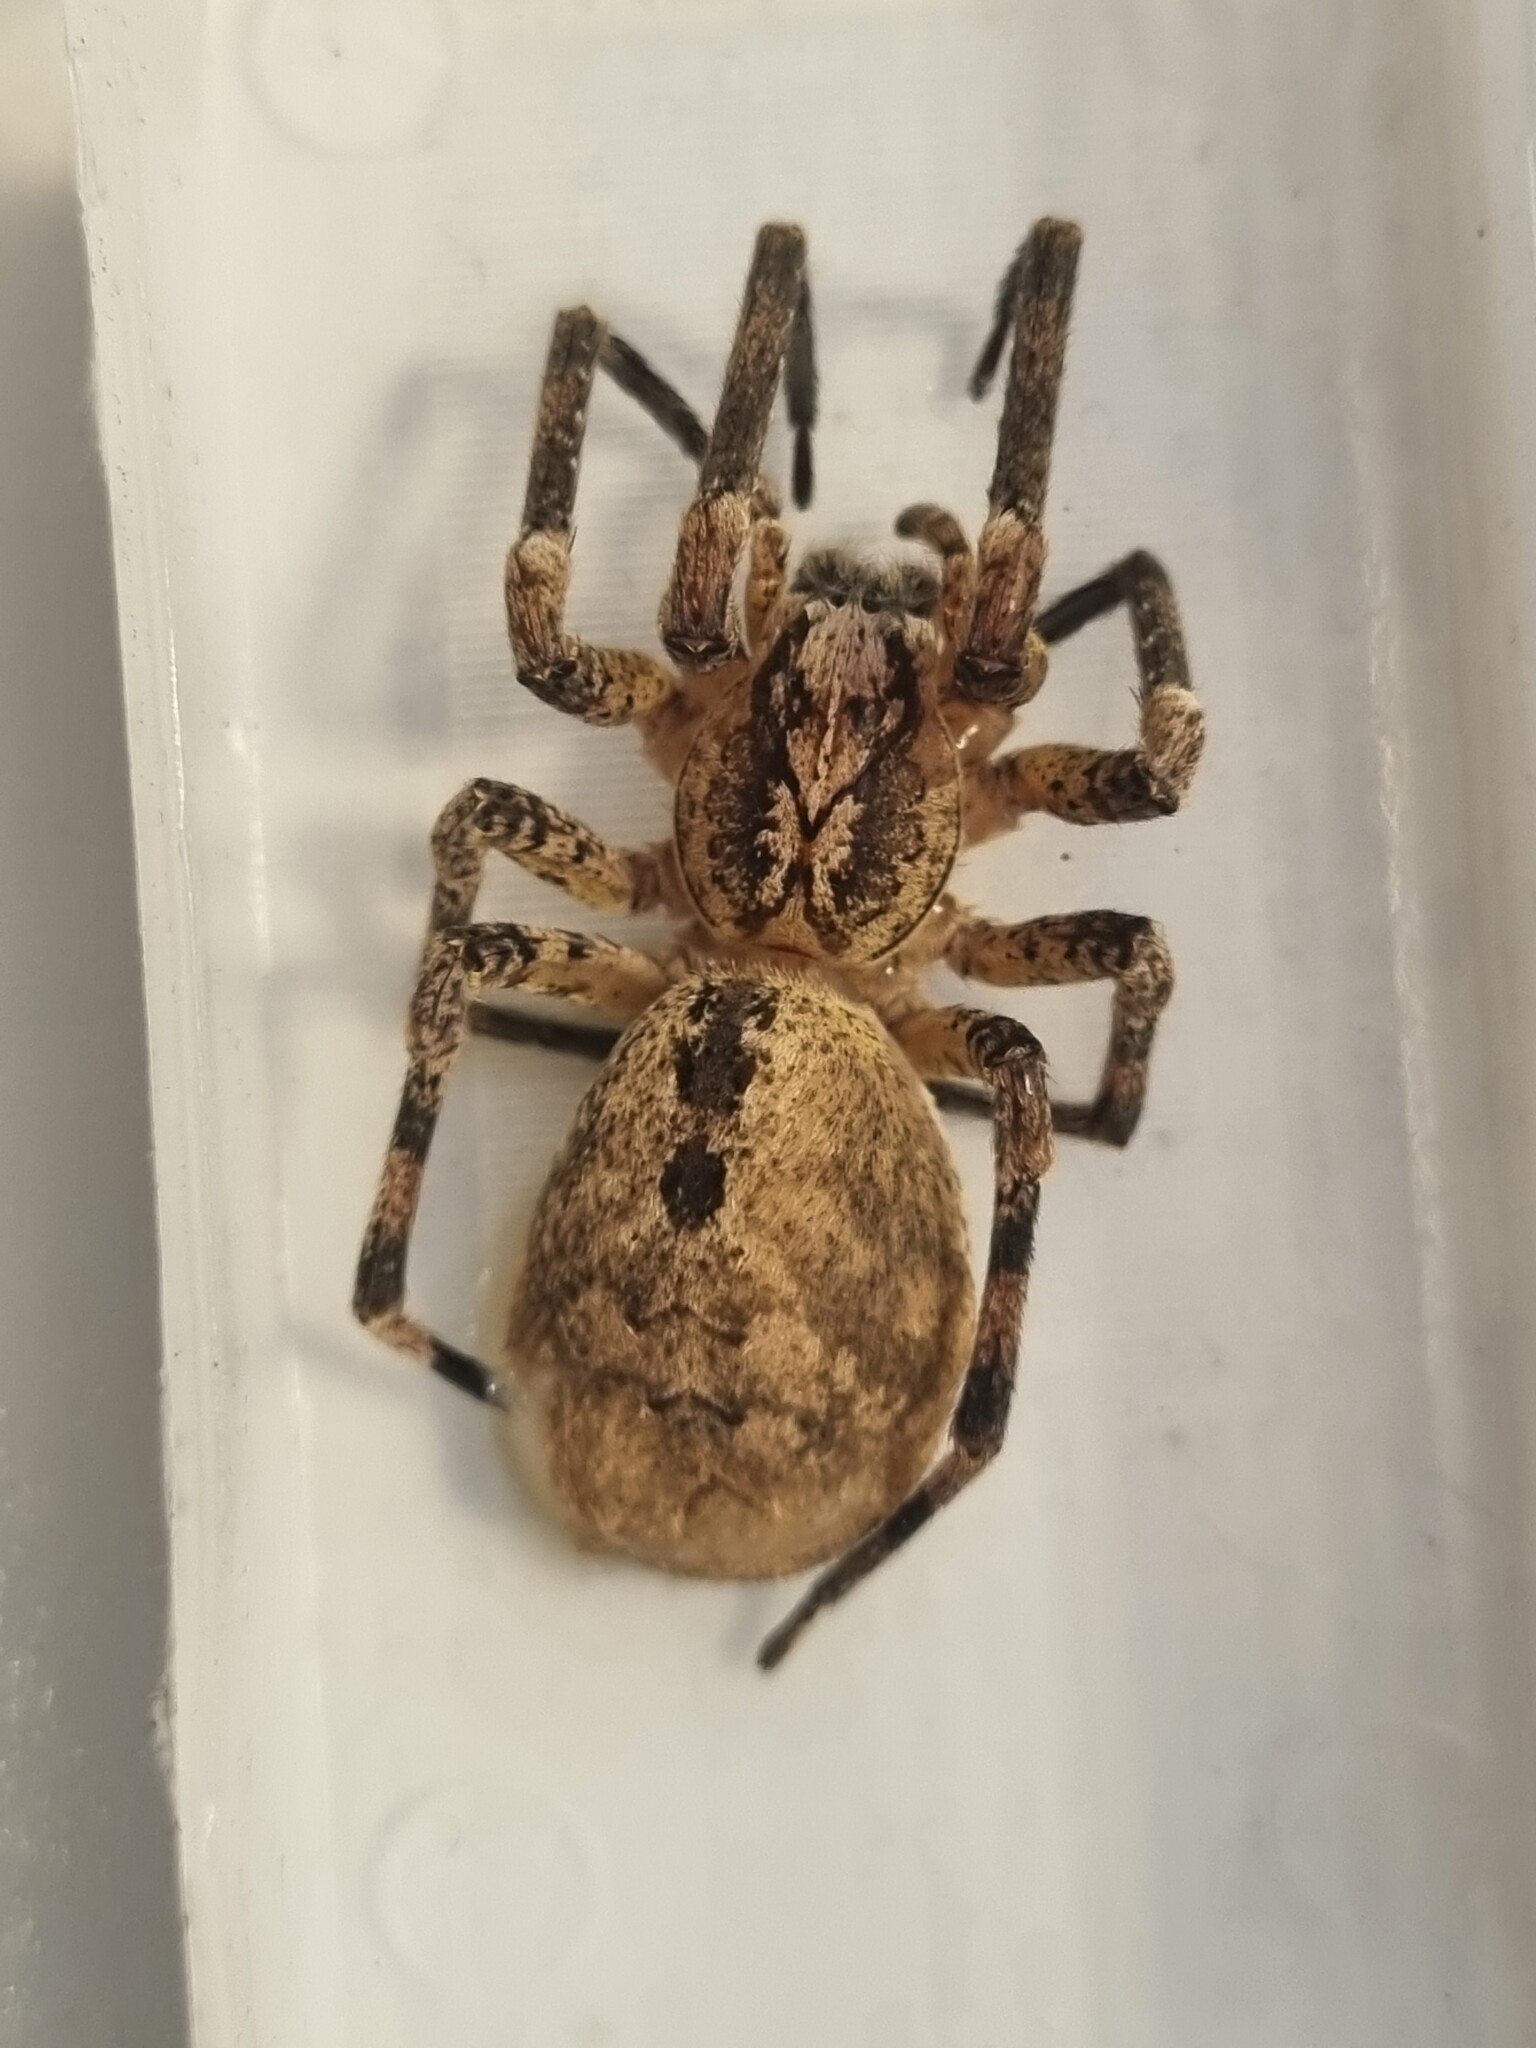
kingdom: Animalia
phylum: Arthropoda
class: Arachnida
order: Araneae
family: Zoropsidae
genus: Zoropsis
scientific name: Zoropsis spinimana
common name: Zoropsid spider
